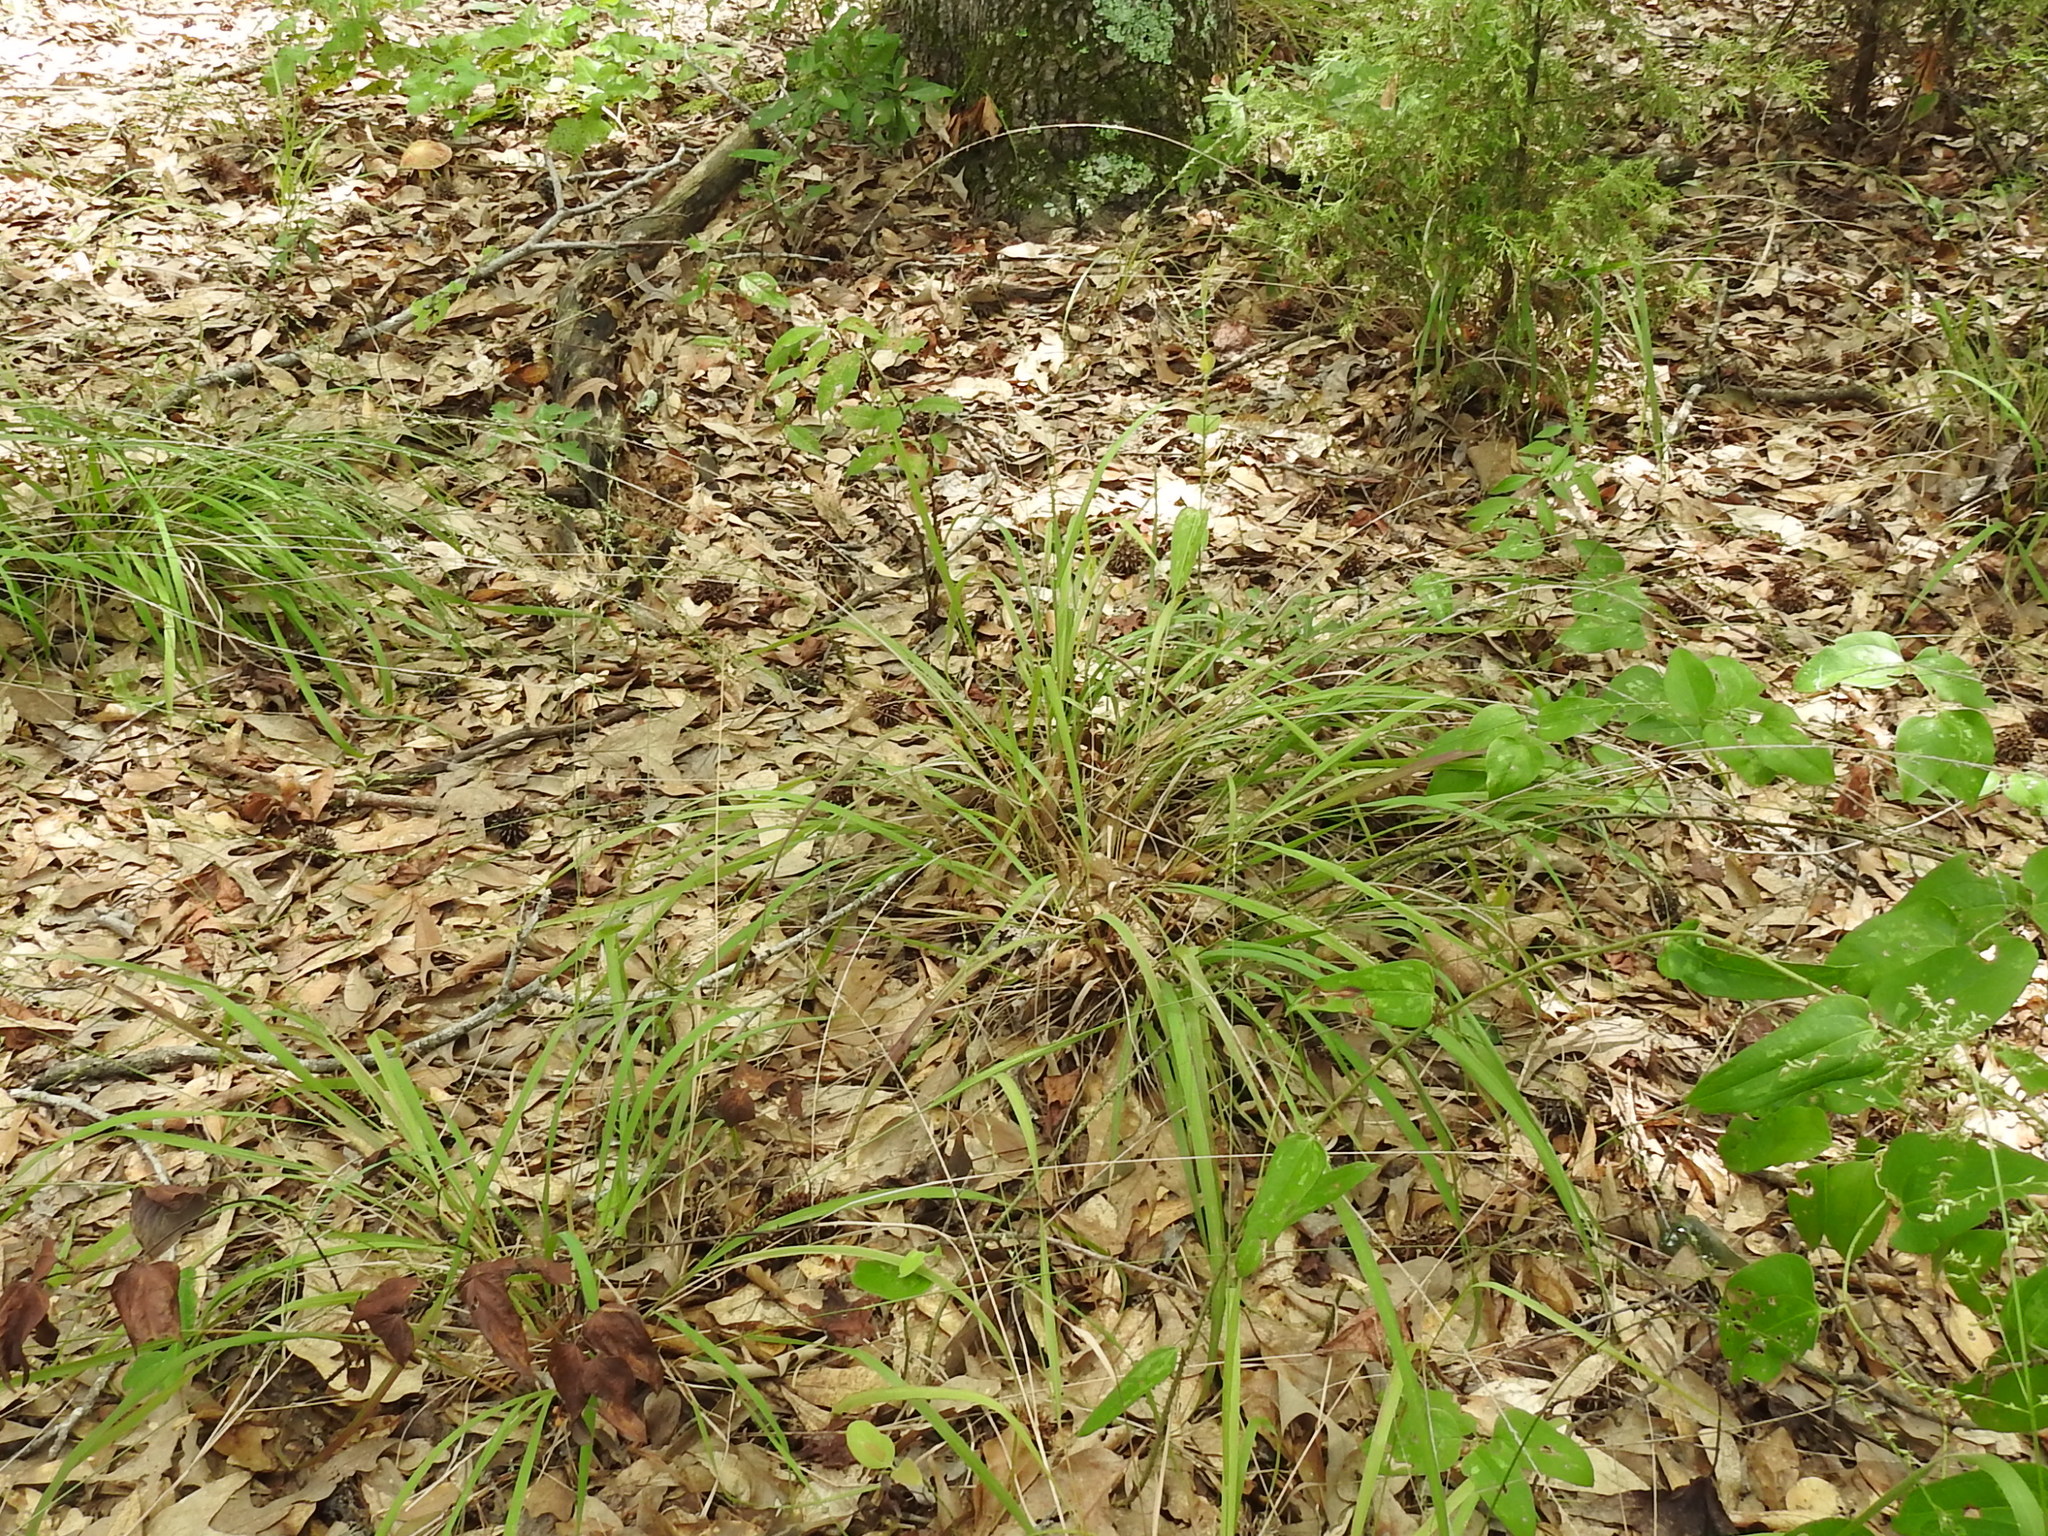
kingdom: Plantae
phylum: Tracheophyta
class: Liliopsida
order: Poales
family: Poaceae
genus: Chasmanthium
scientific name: Chasmanthium laxum
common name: Slender chasmanthium
